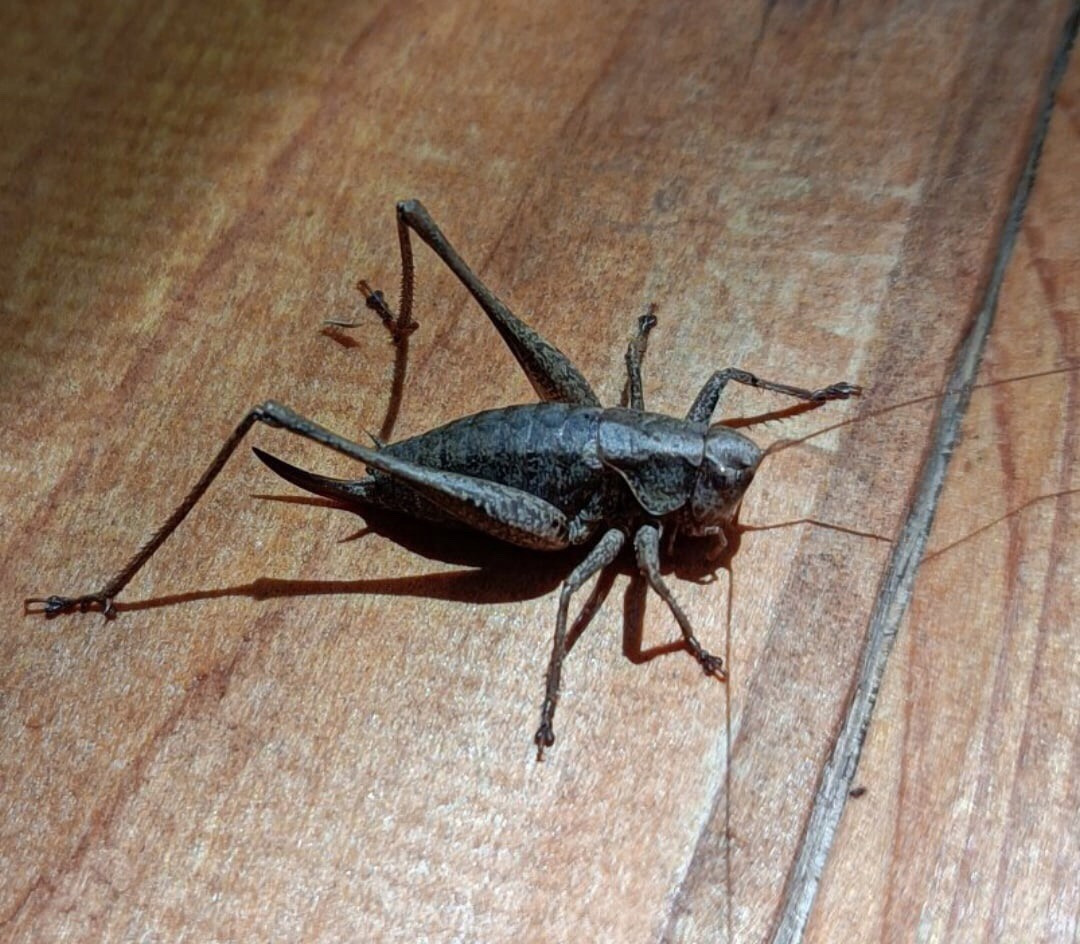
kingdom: Animalia
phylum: Arthropoda
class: Insecta
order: Orthoptera
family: Tettigoniidae
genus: Pholidoptera
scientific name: Pholidoptera griseoaptera
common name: Dark bush-cricket
